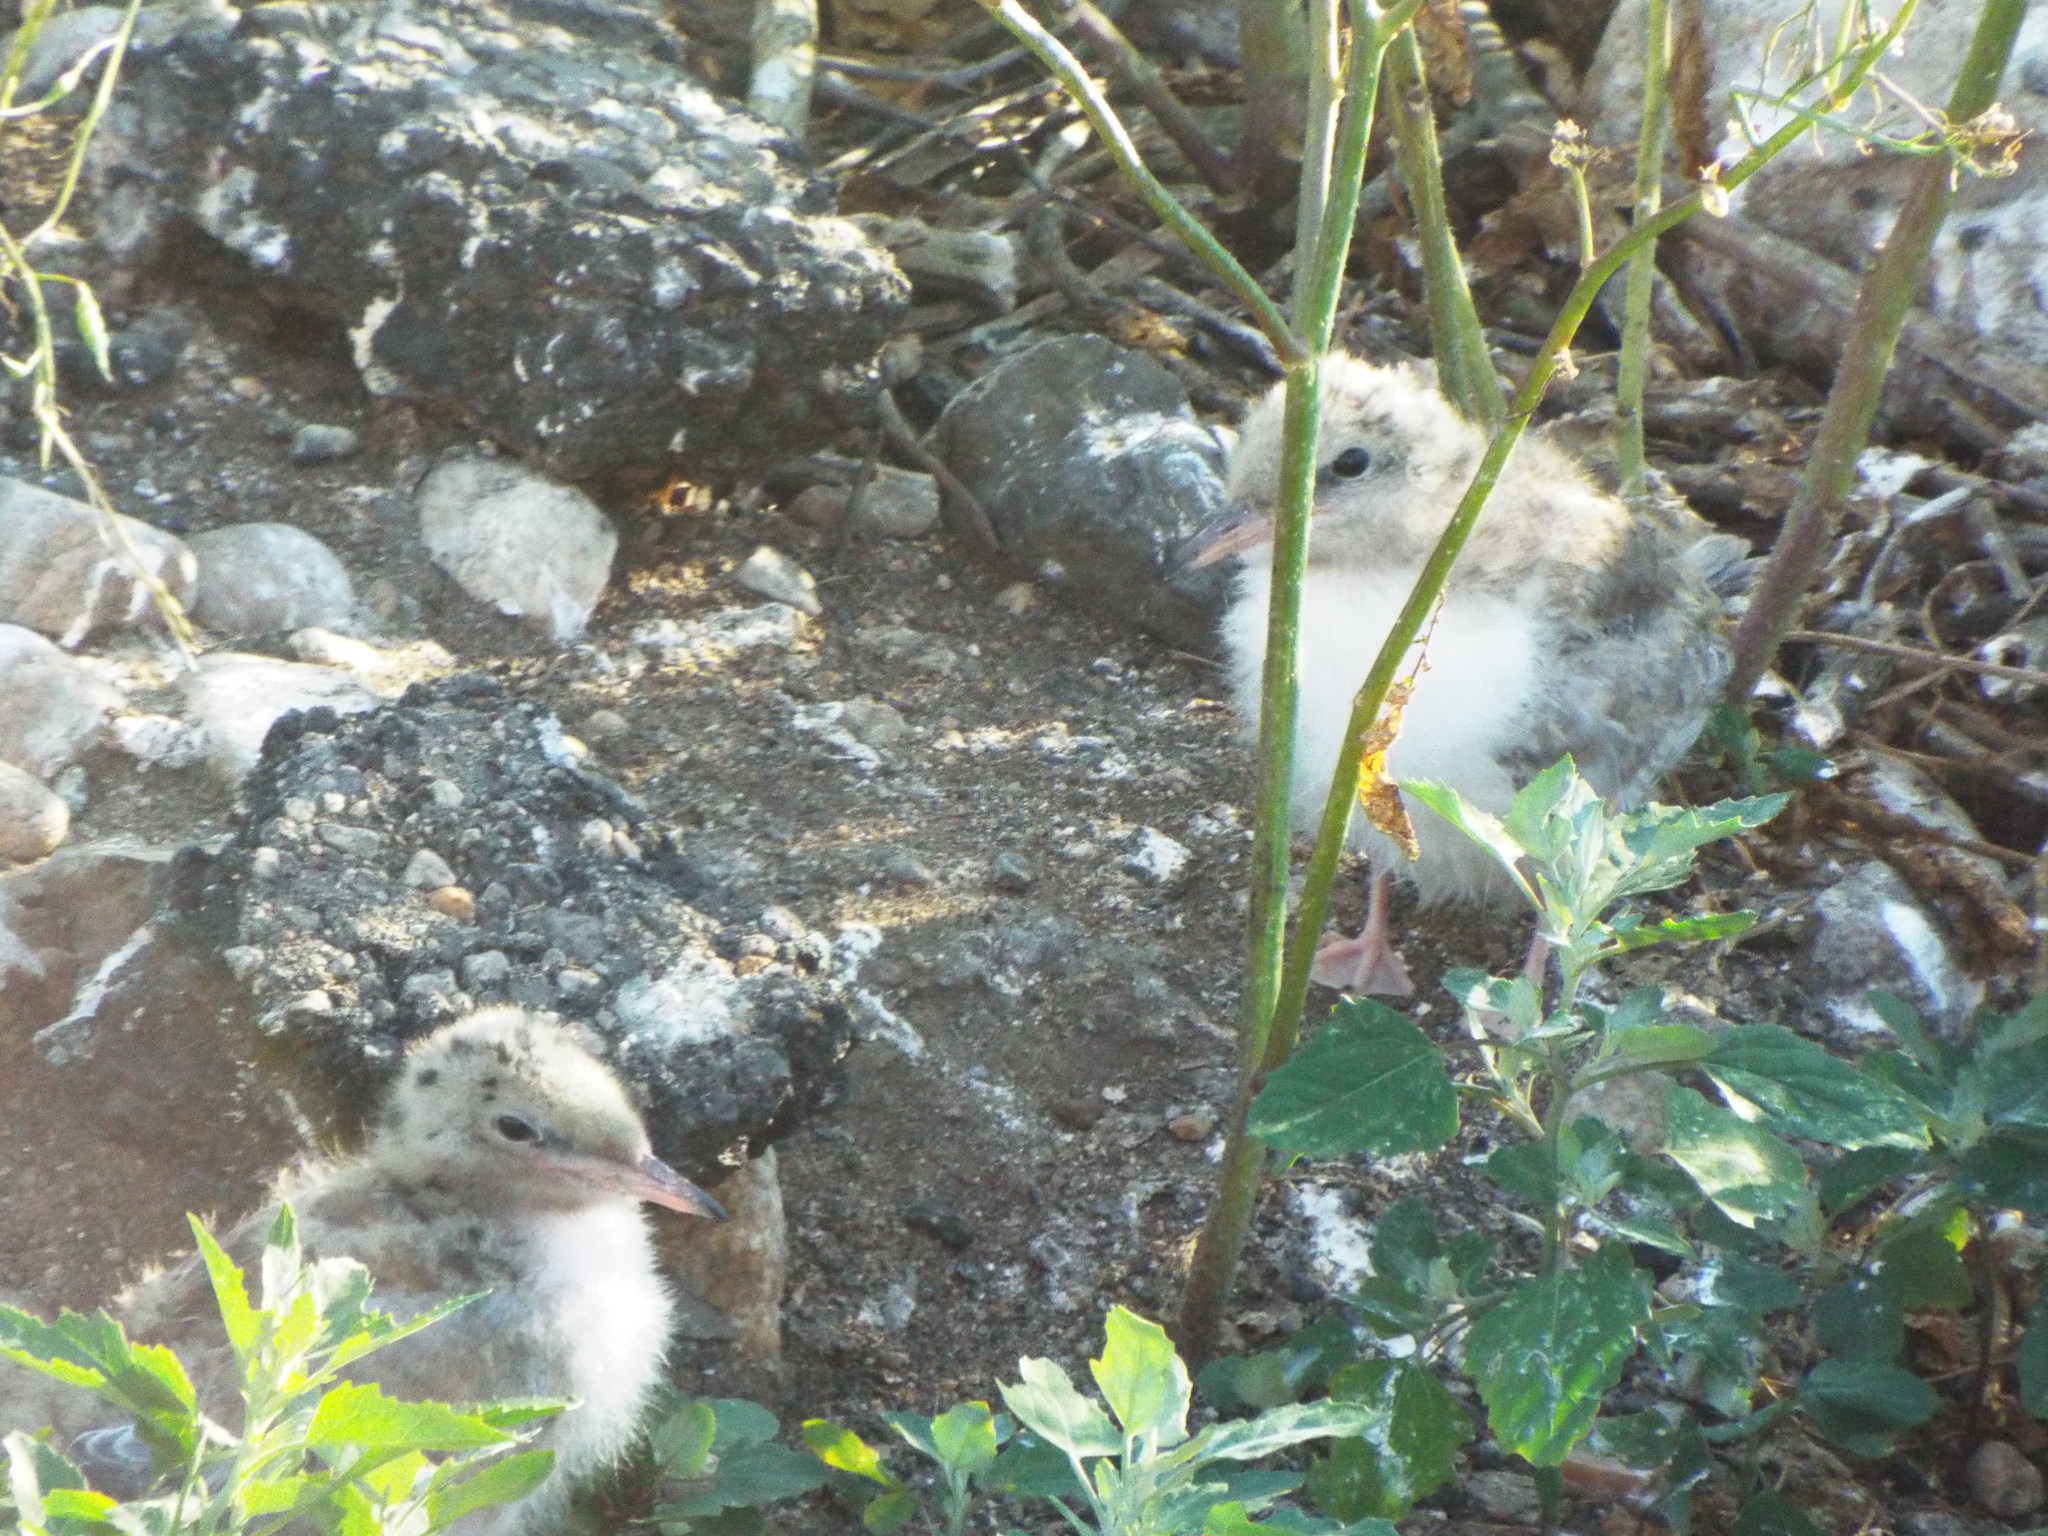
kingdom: Animalia
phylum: Chordata
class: Aves
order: Charadriiformes
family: Laridae
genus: Sterna
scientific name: Sterna hirundo
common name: Common tern
